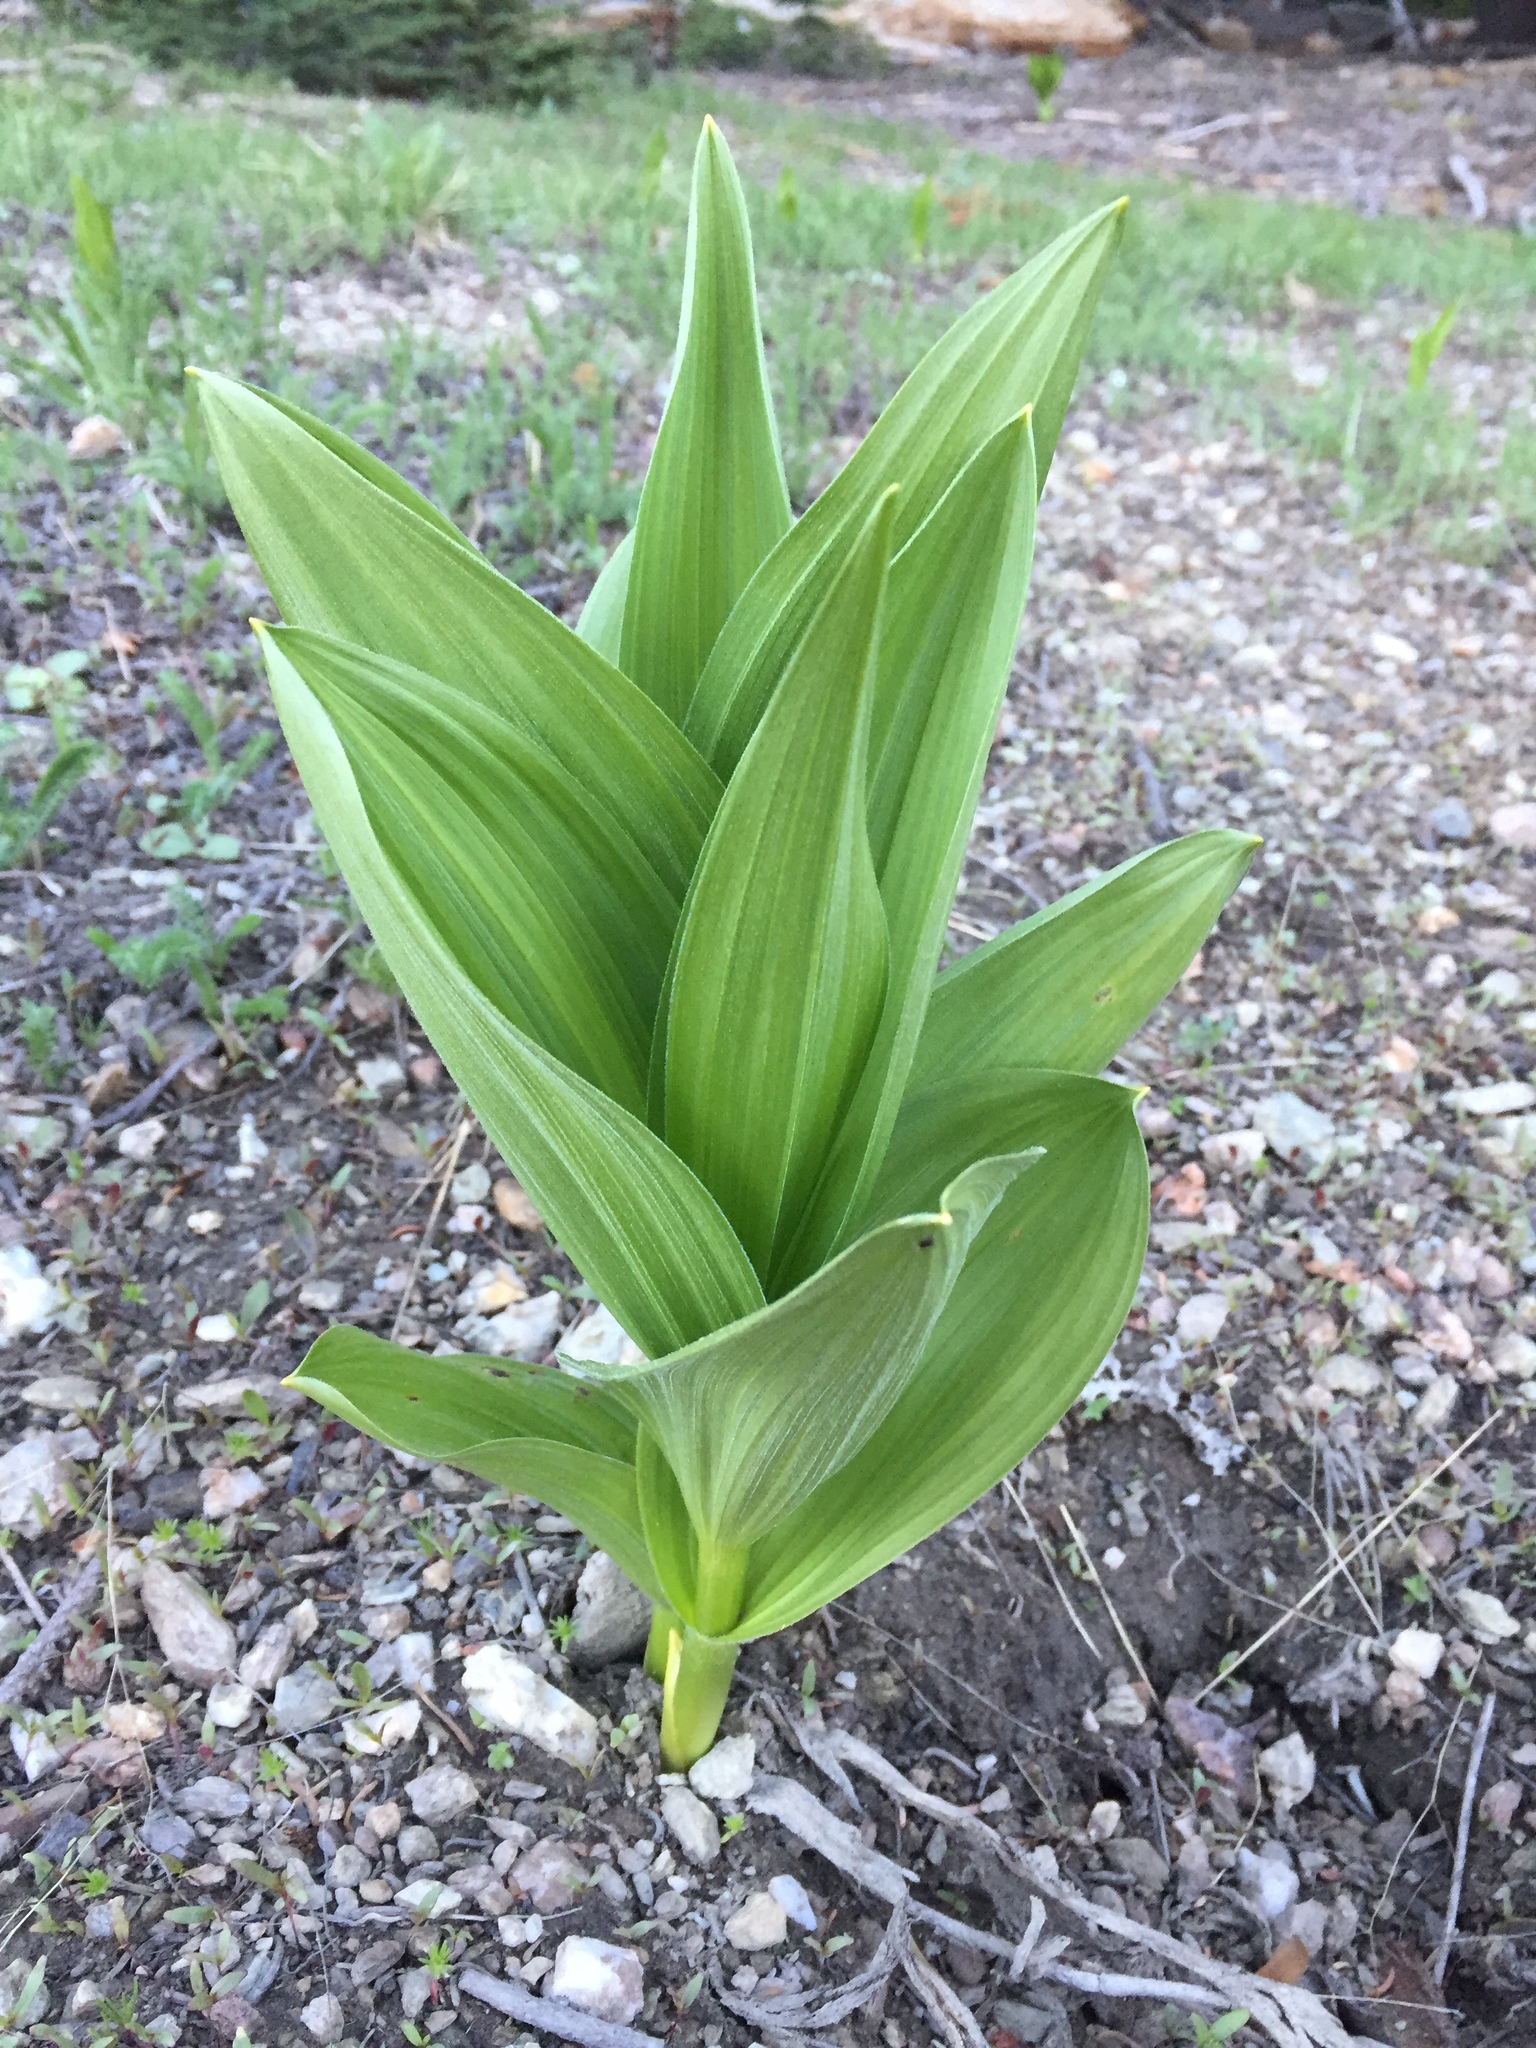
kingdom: Plantae
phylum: Tracheophyta
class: Liliopsida
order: Liliales
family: Melanthiaceae
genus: Veratrum
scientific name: Veratrum californicum
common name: California veratrum
